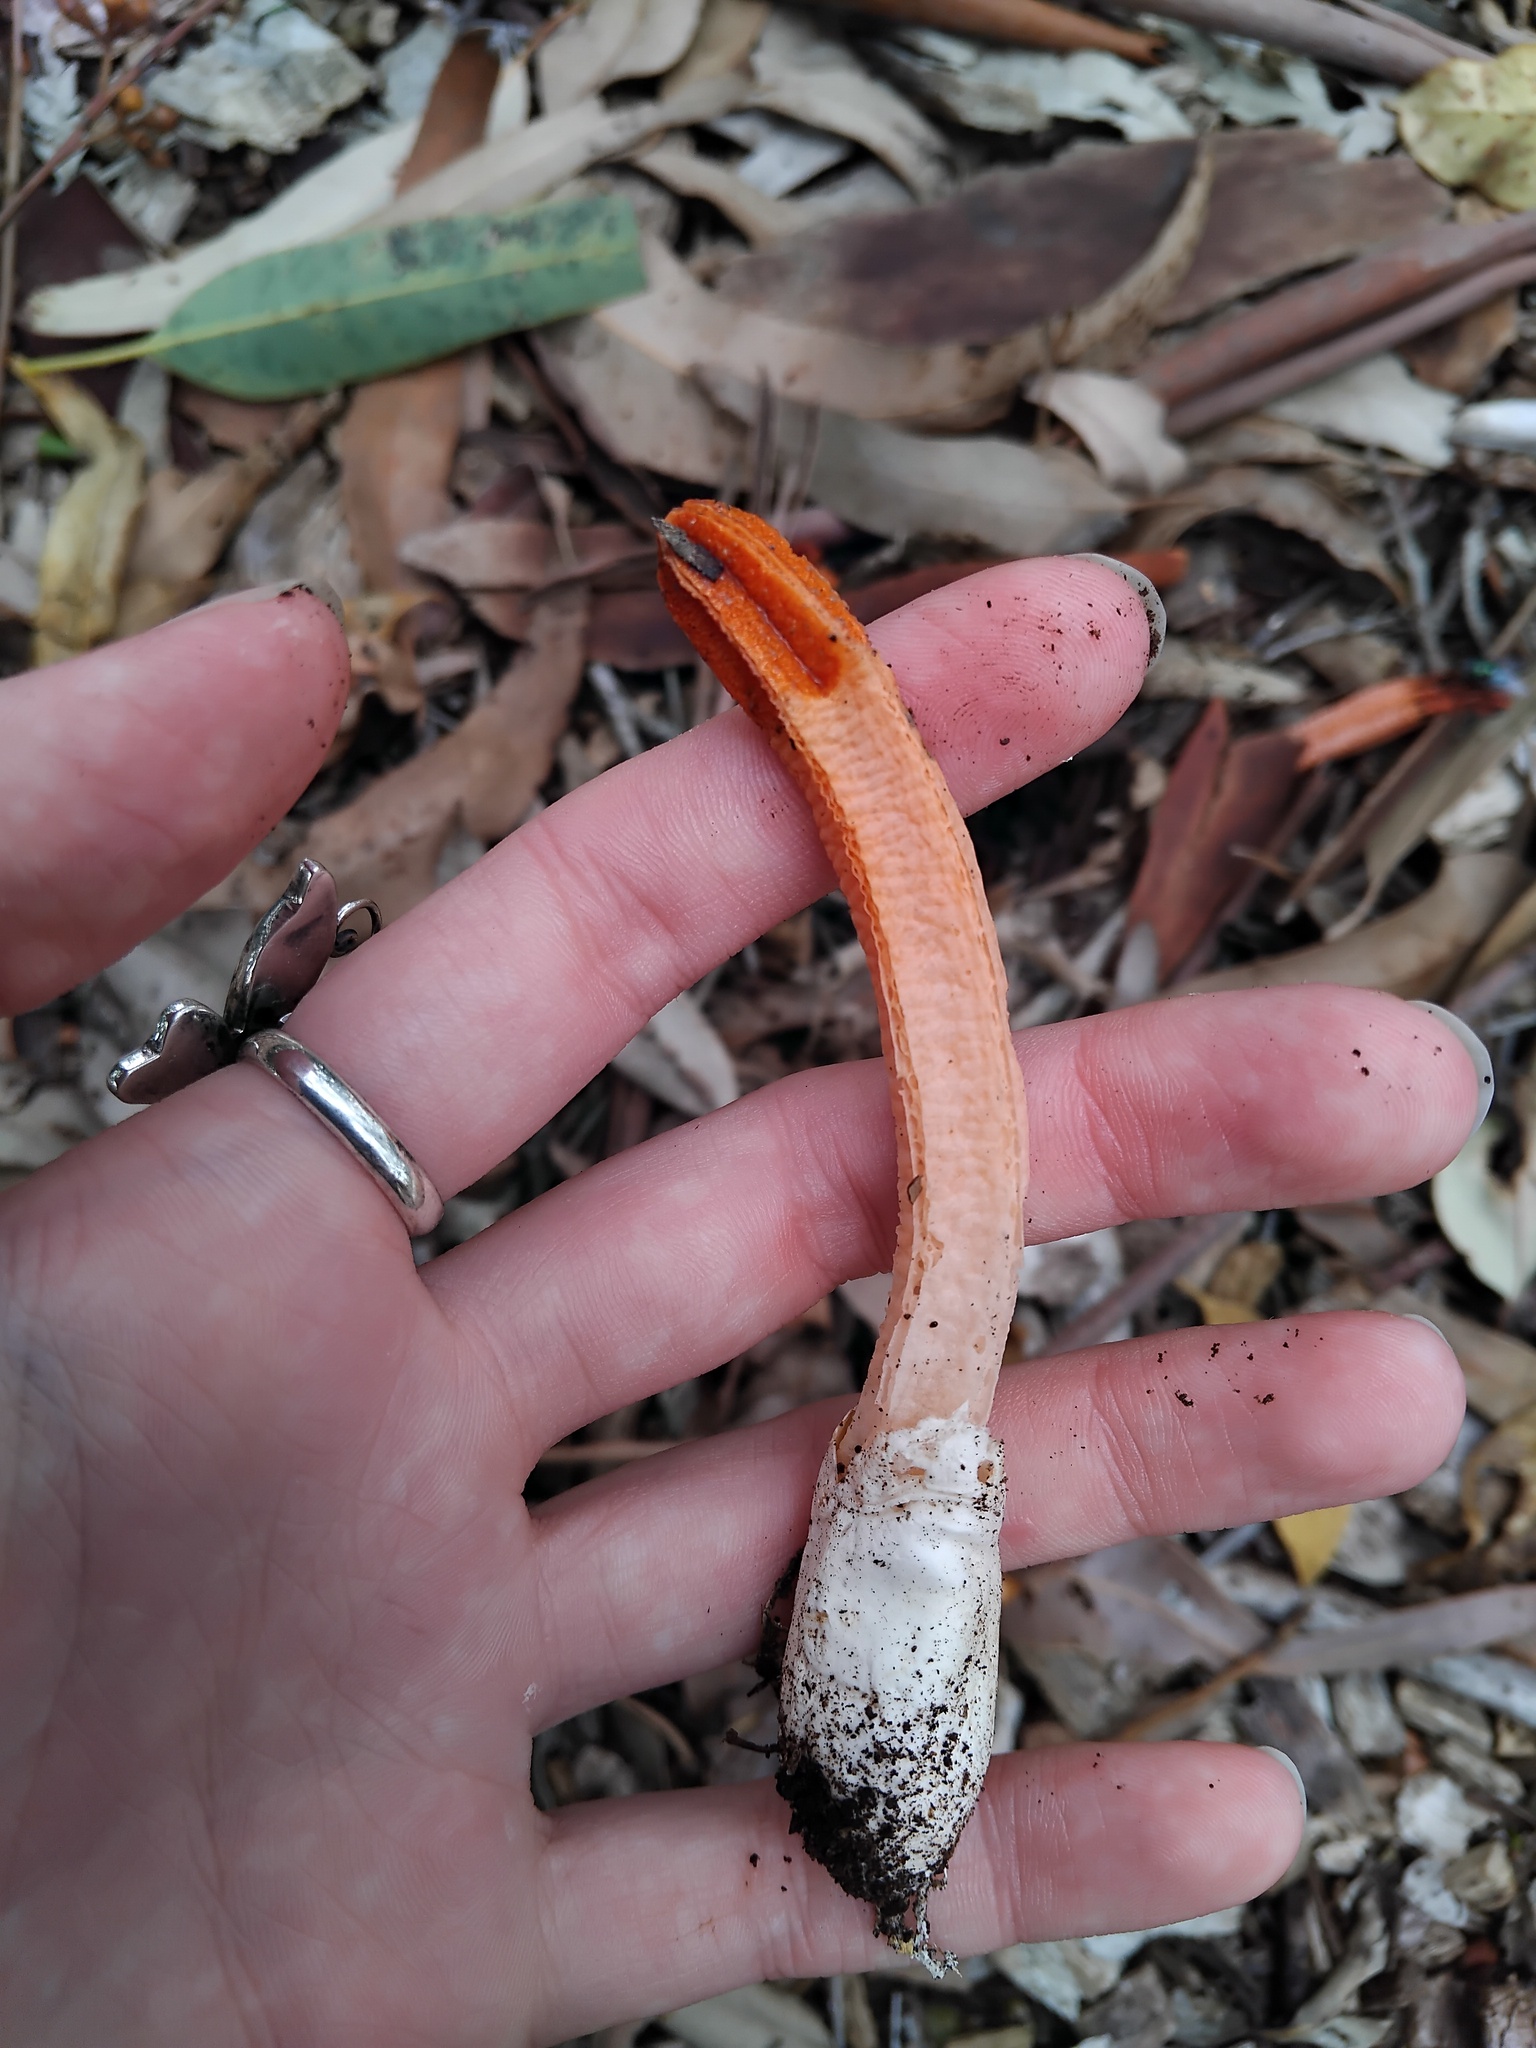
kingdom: Fungi
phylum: Basidiomycota
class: Agaricomycetes
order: Phallales
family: Phallaceae
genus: Lysurus
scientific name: Lysurus mokusin
